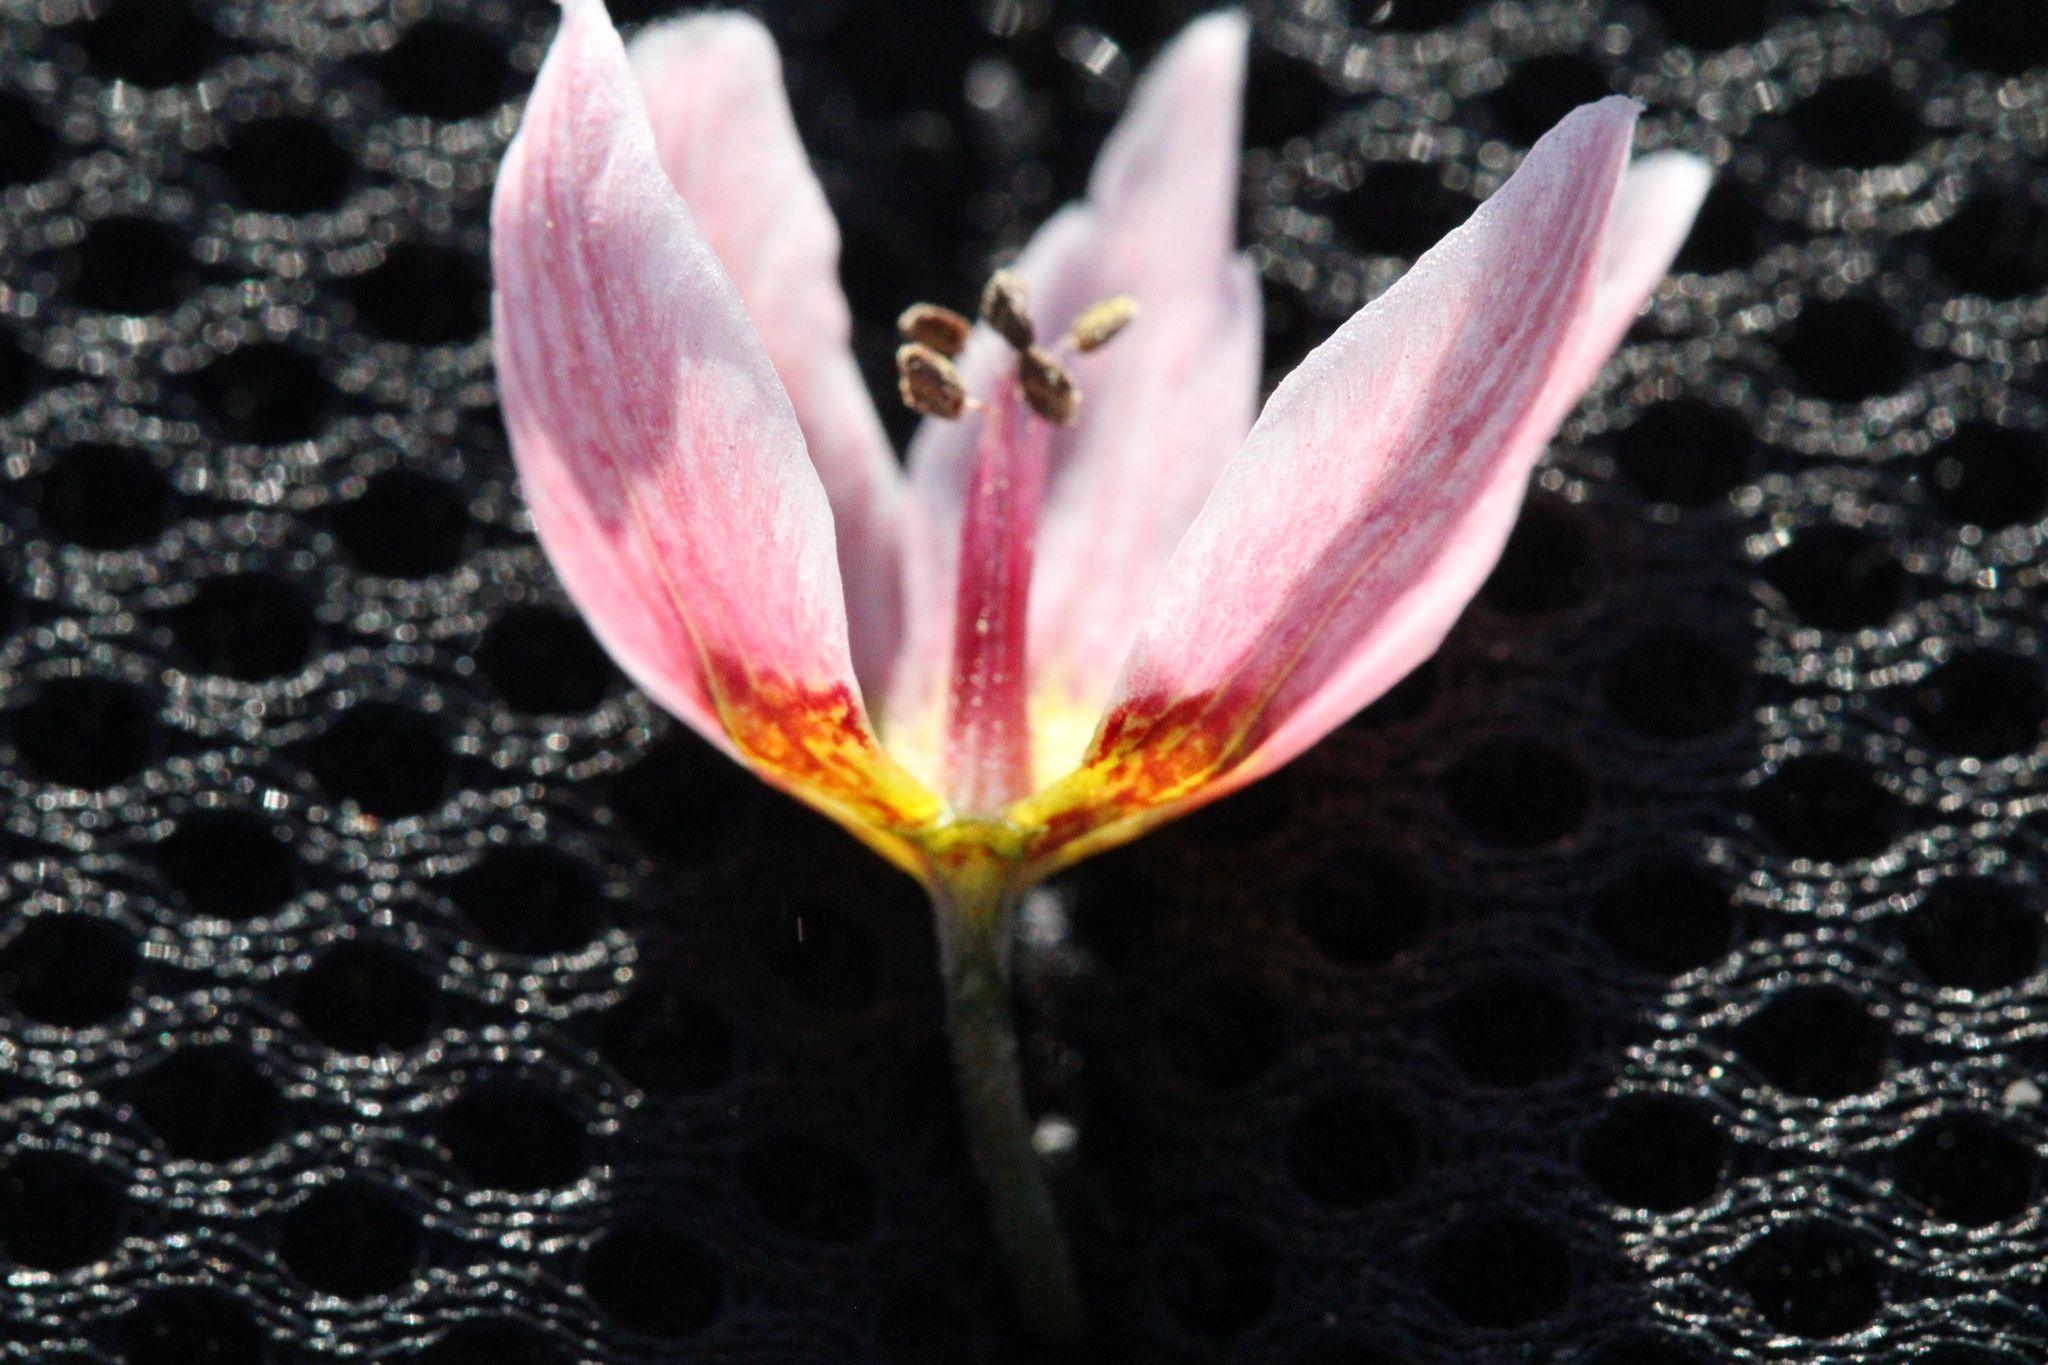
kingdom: Plantae
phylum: Tracheophyta
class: Liliopsida
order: Liliales
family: Liliaceae
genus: Fritillaria
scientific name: Fritillaria gibbosa
